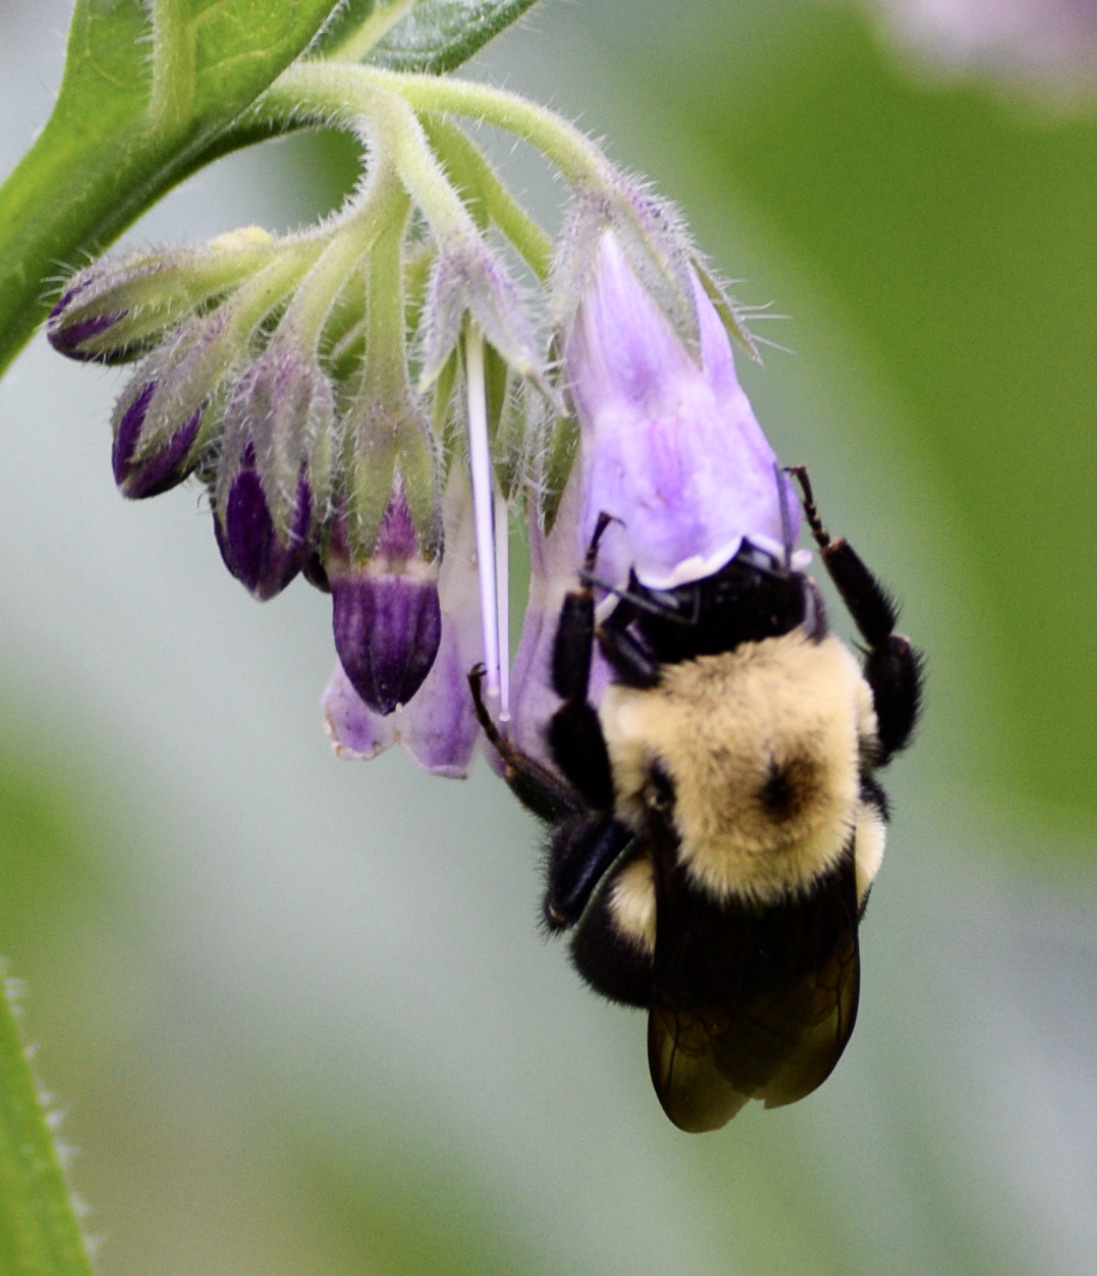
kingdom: Animalia
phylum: Arthropoda
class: Insecta
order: Hymenoptera
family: Apidae
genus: Bombus
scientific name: Bombus griseocollis
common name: Brown-belted bumble bee
